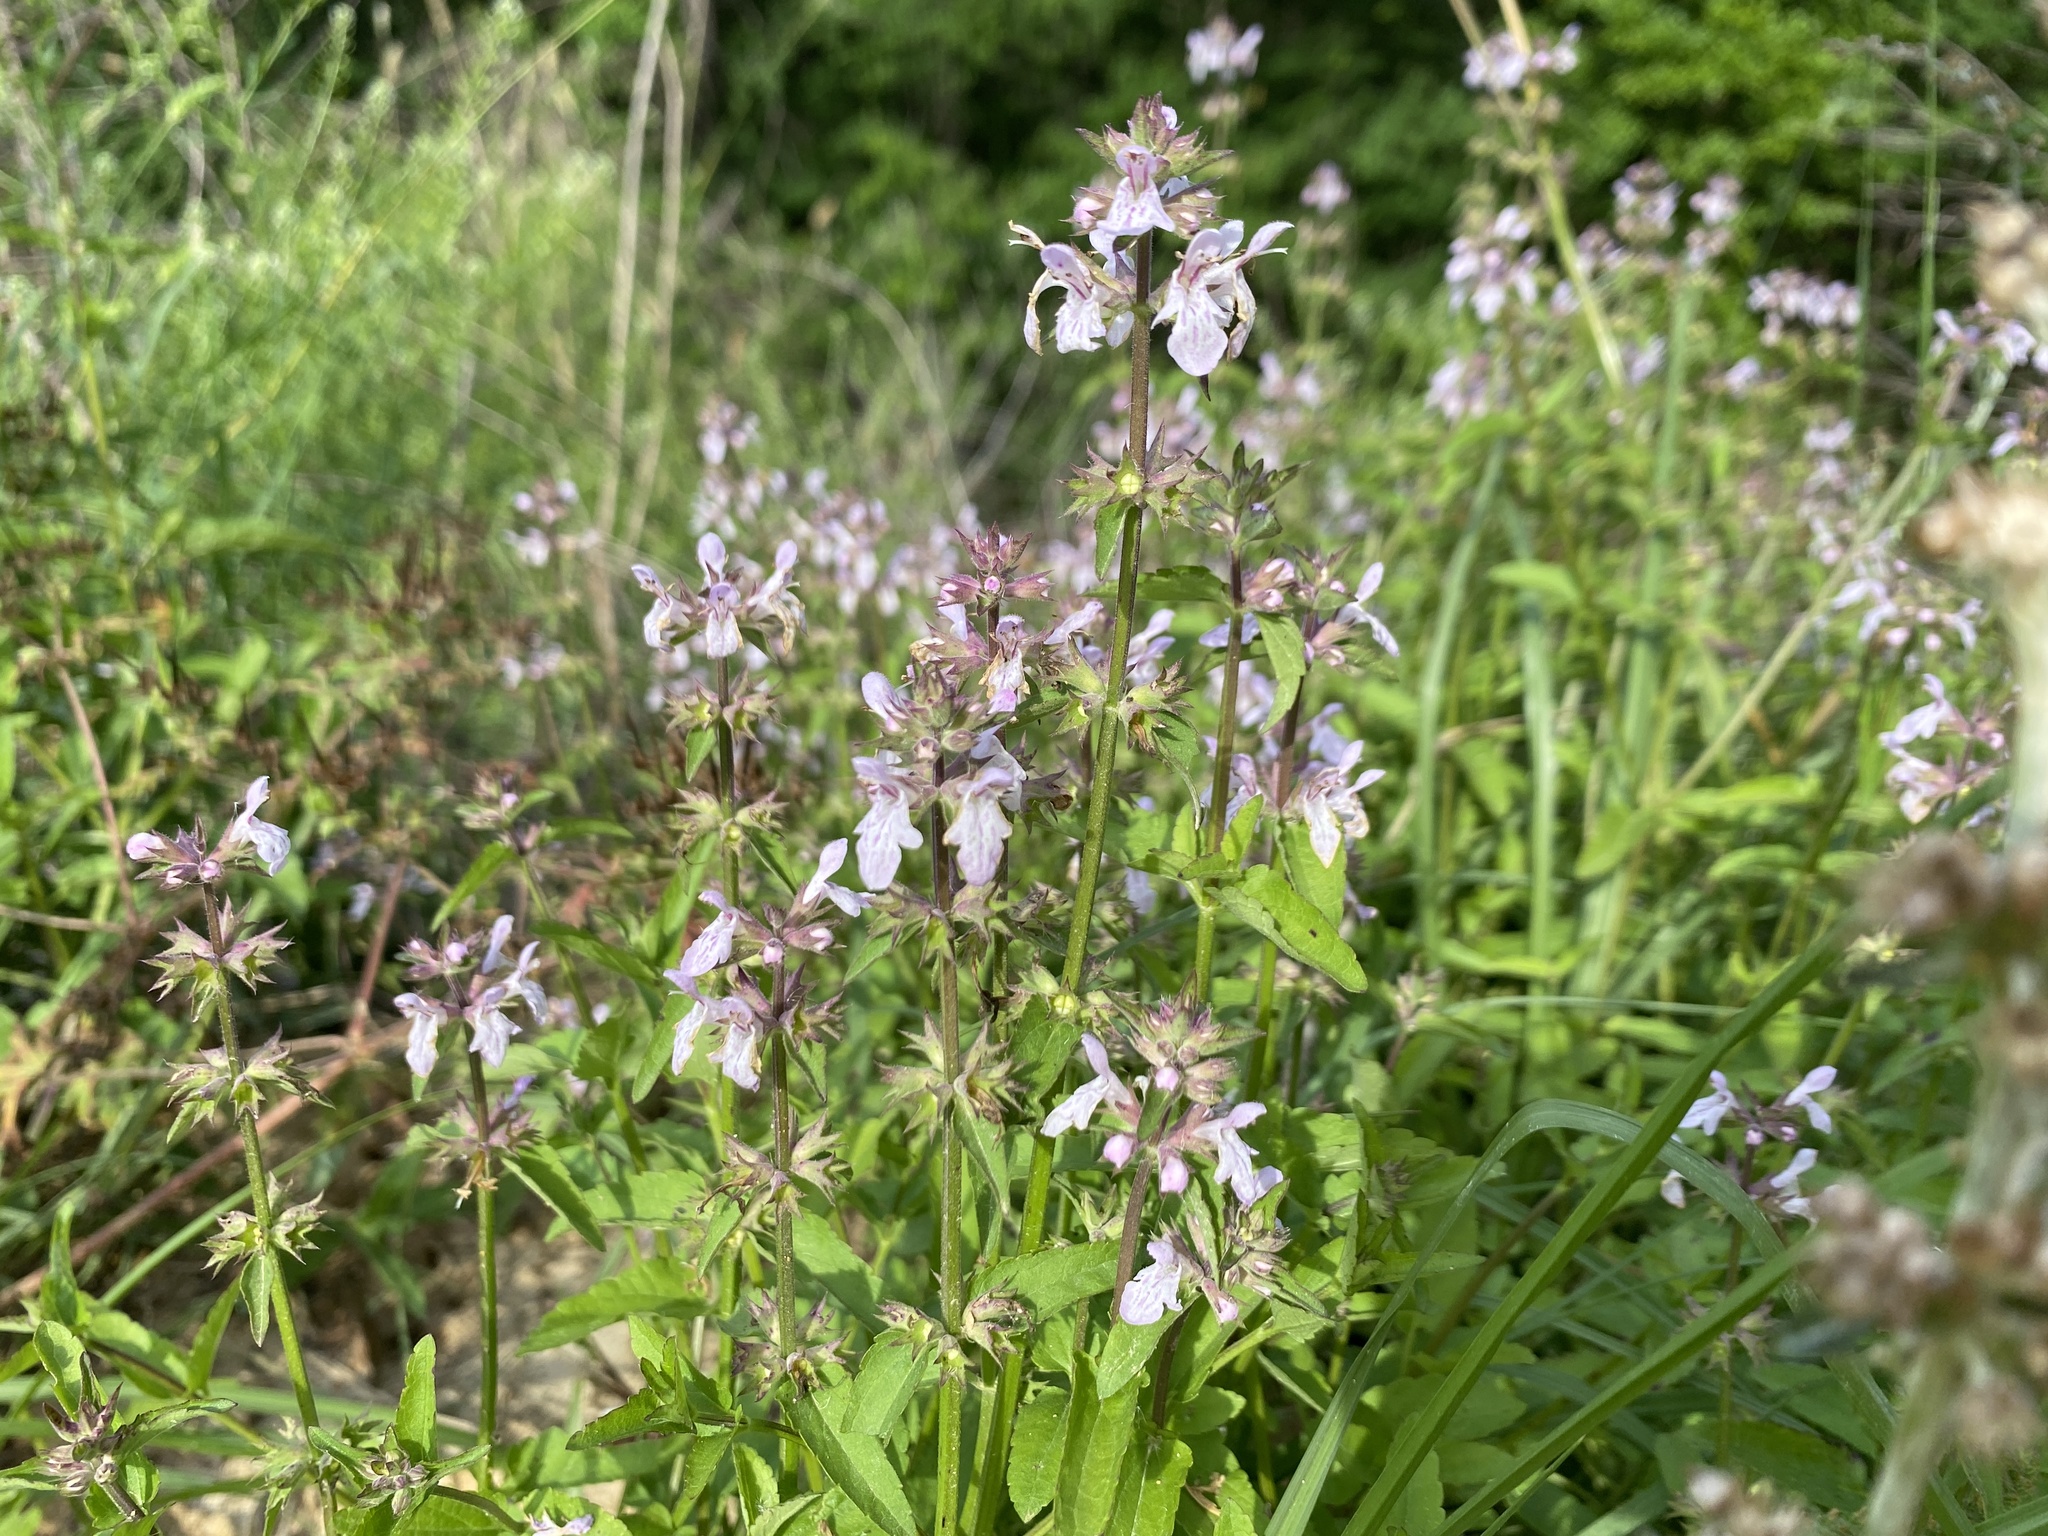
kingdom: Plantae
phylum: Tracheophyta
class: Magnoliopsida
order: Lamiales
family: Lamiaceae
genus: Stachys
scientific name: Stachys floridana
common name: Florida betony
